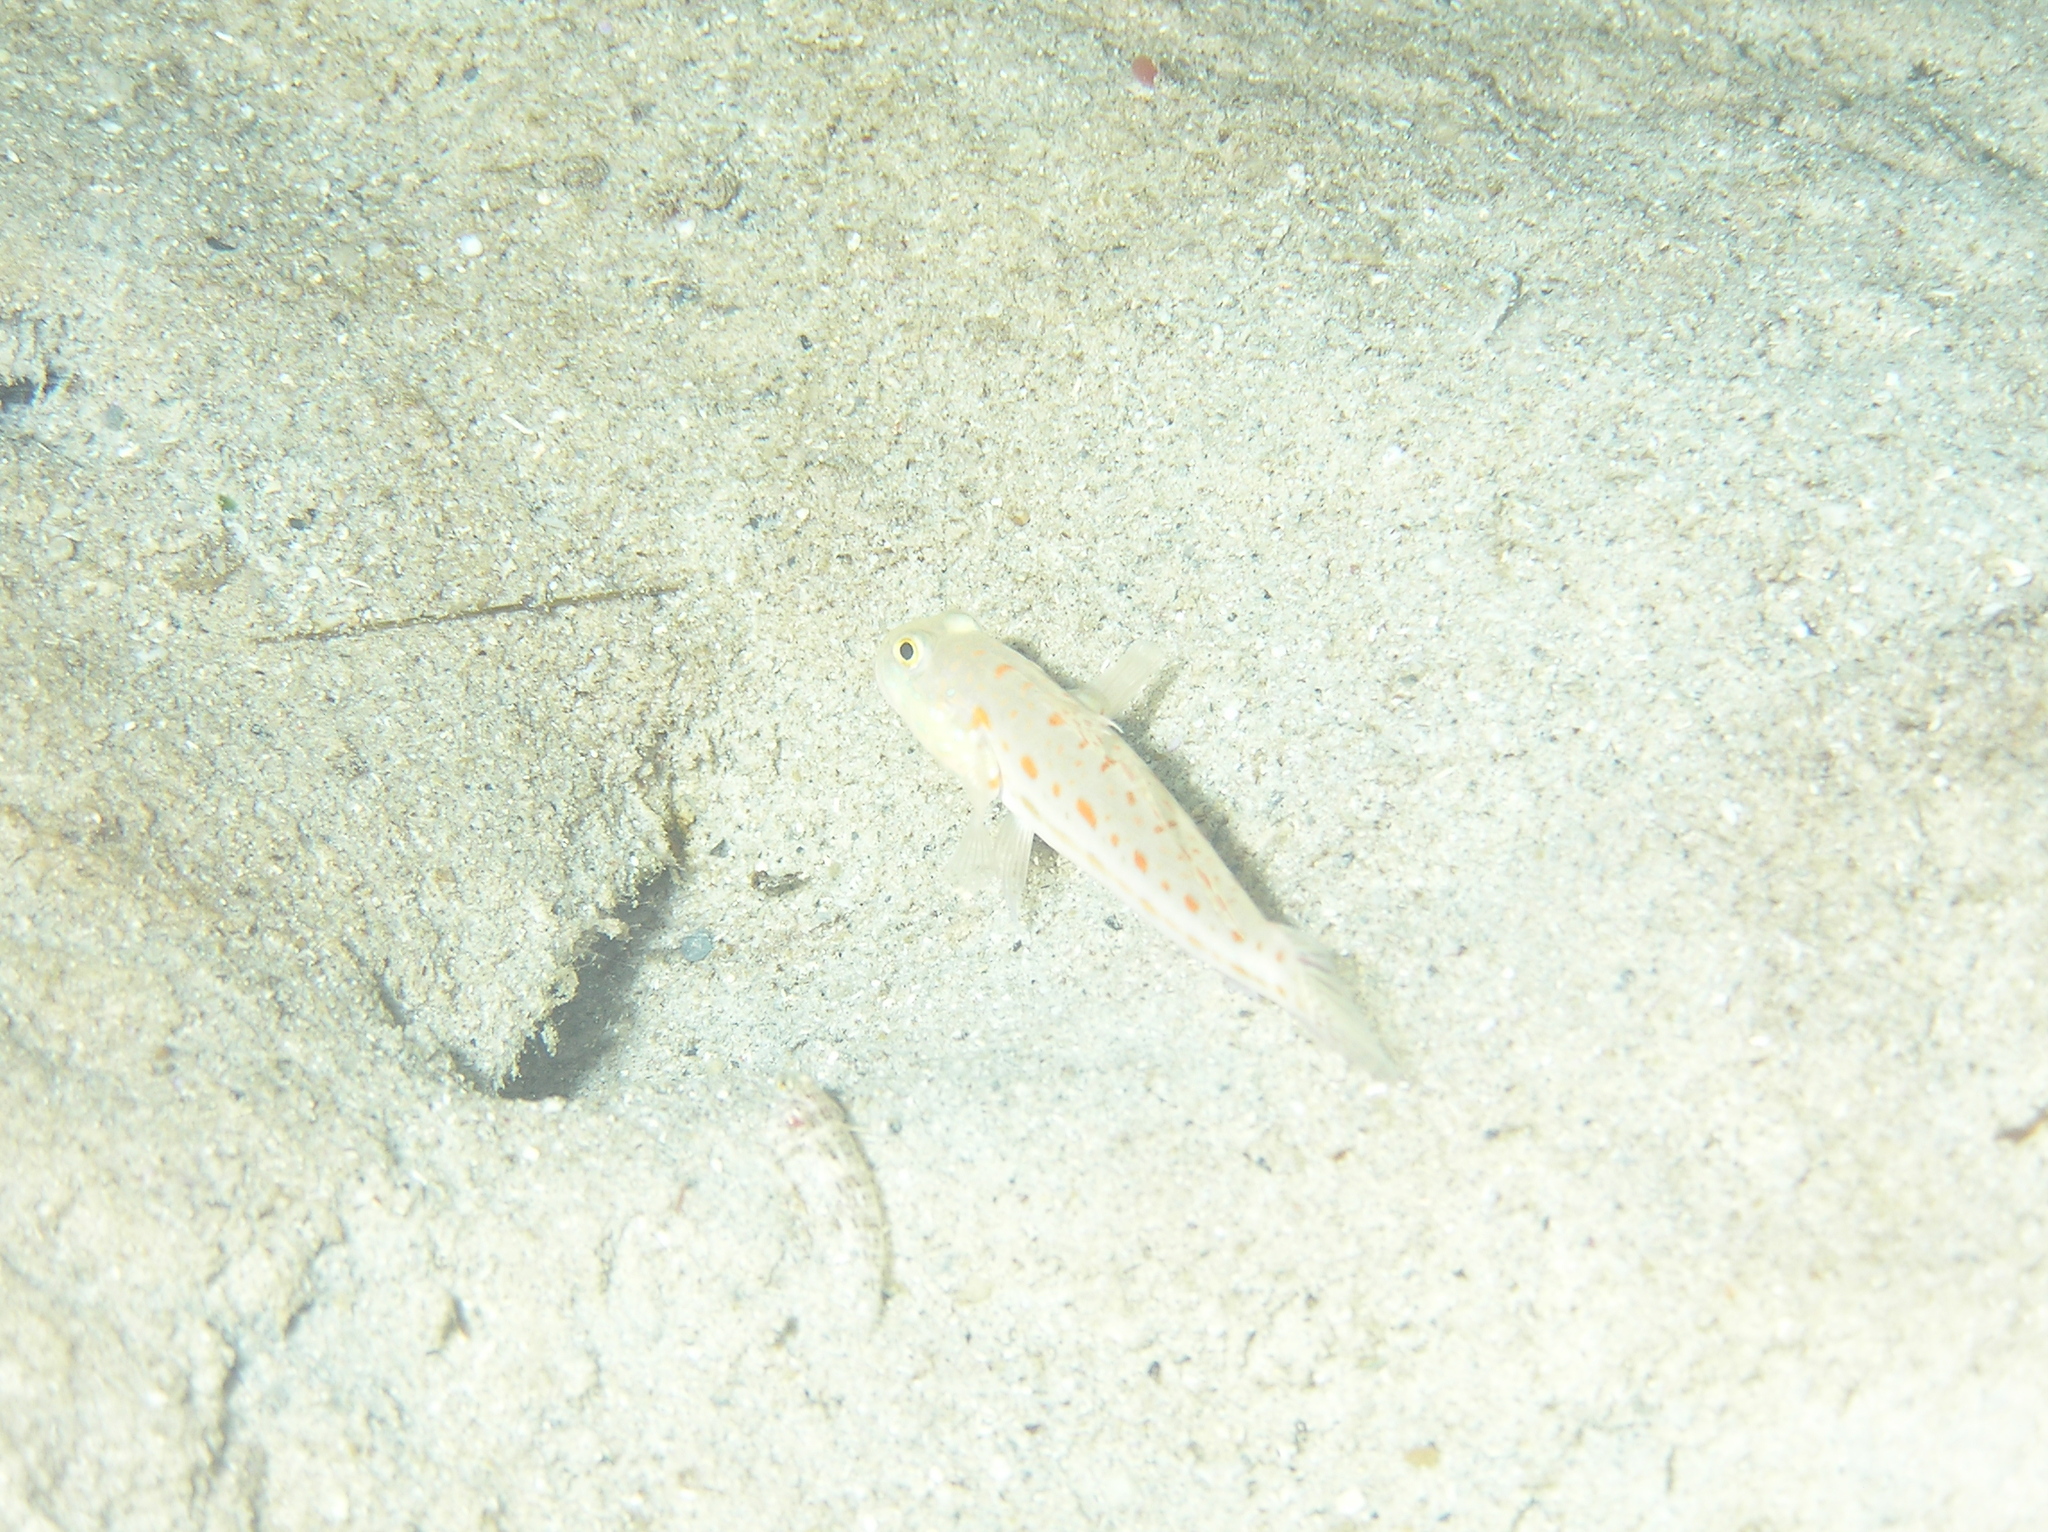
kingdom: Animalia
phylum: Chordata
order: Perciformes
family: Gobiidae
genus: Valenciennea
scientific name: Valenciennea puellaris
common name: Orange-dashed goby
